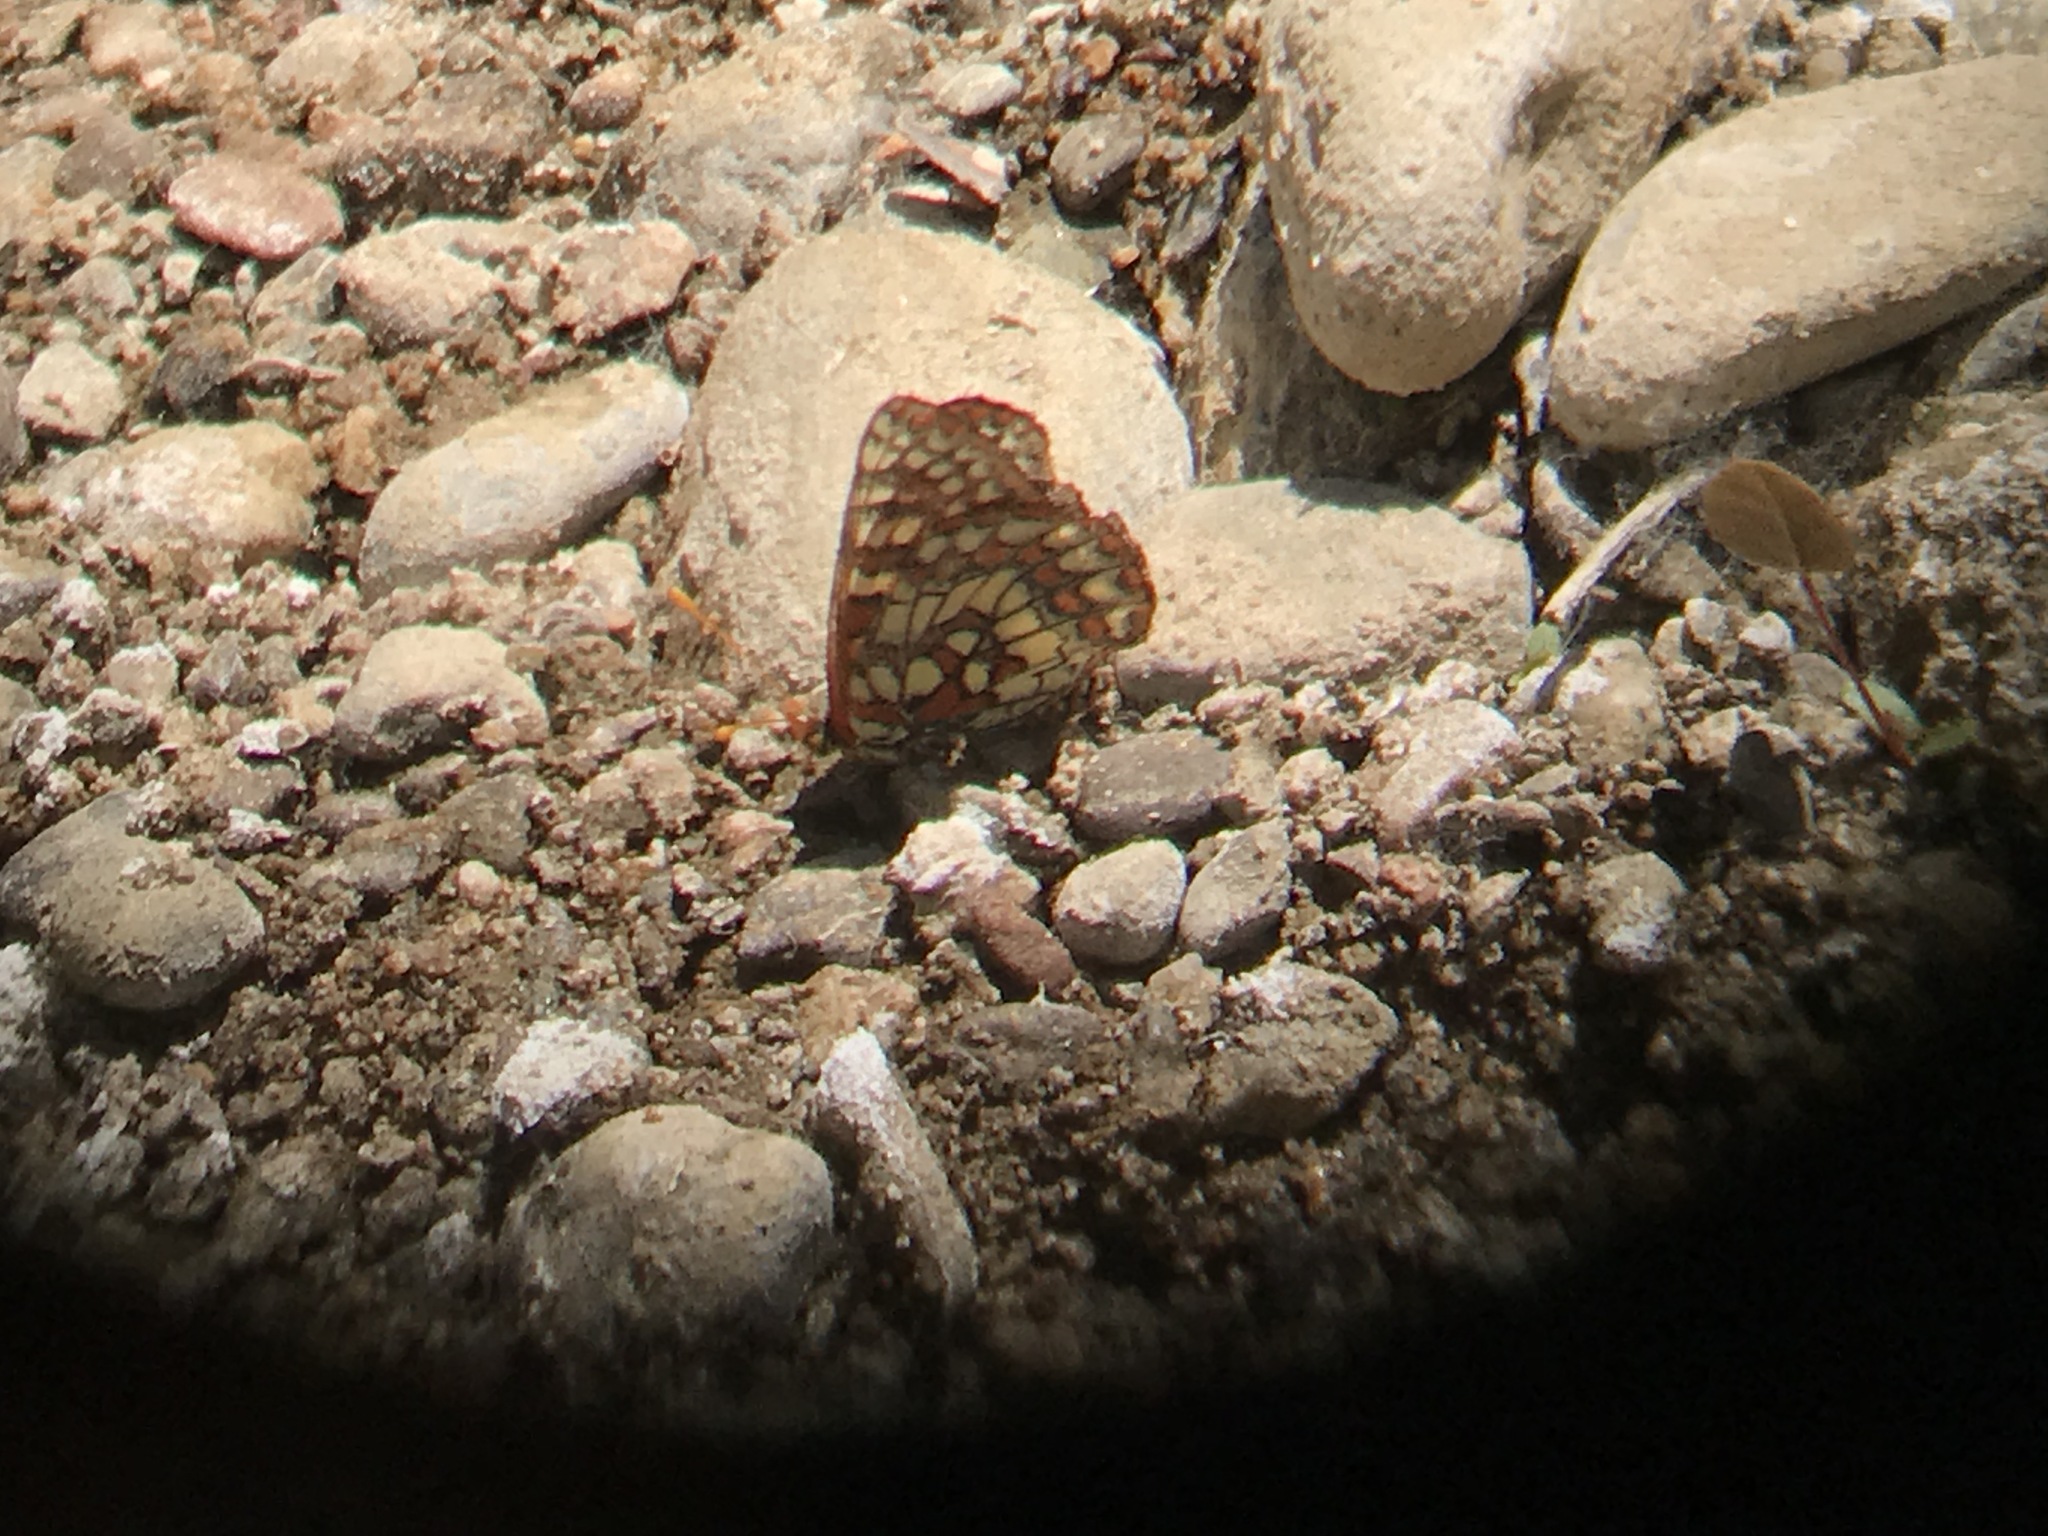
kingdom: Animalia
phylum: Arthropoda
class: Insecta
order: Lepidoptera
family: Nymphalidae
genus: Occidryas
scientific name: Occidryas chalcedona
